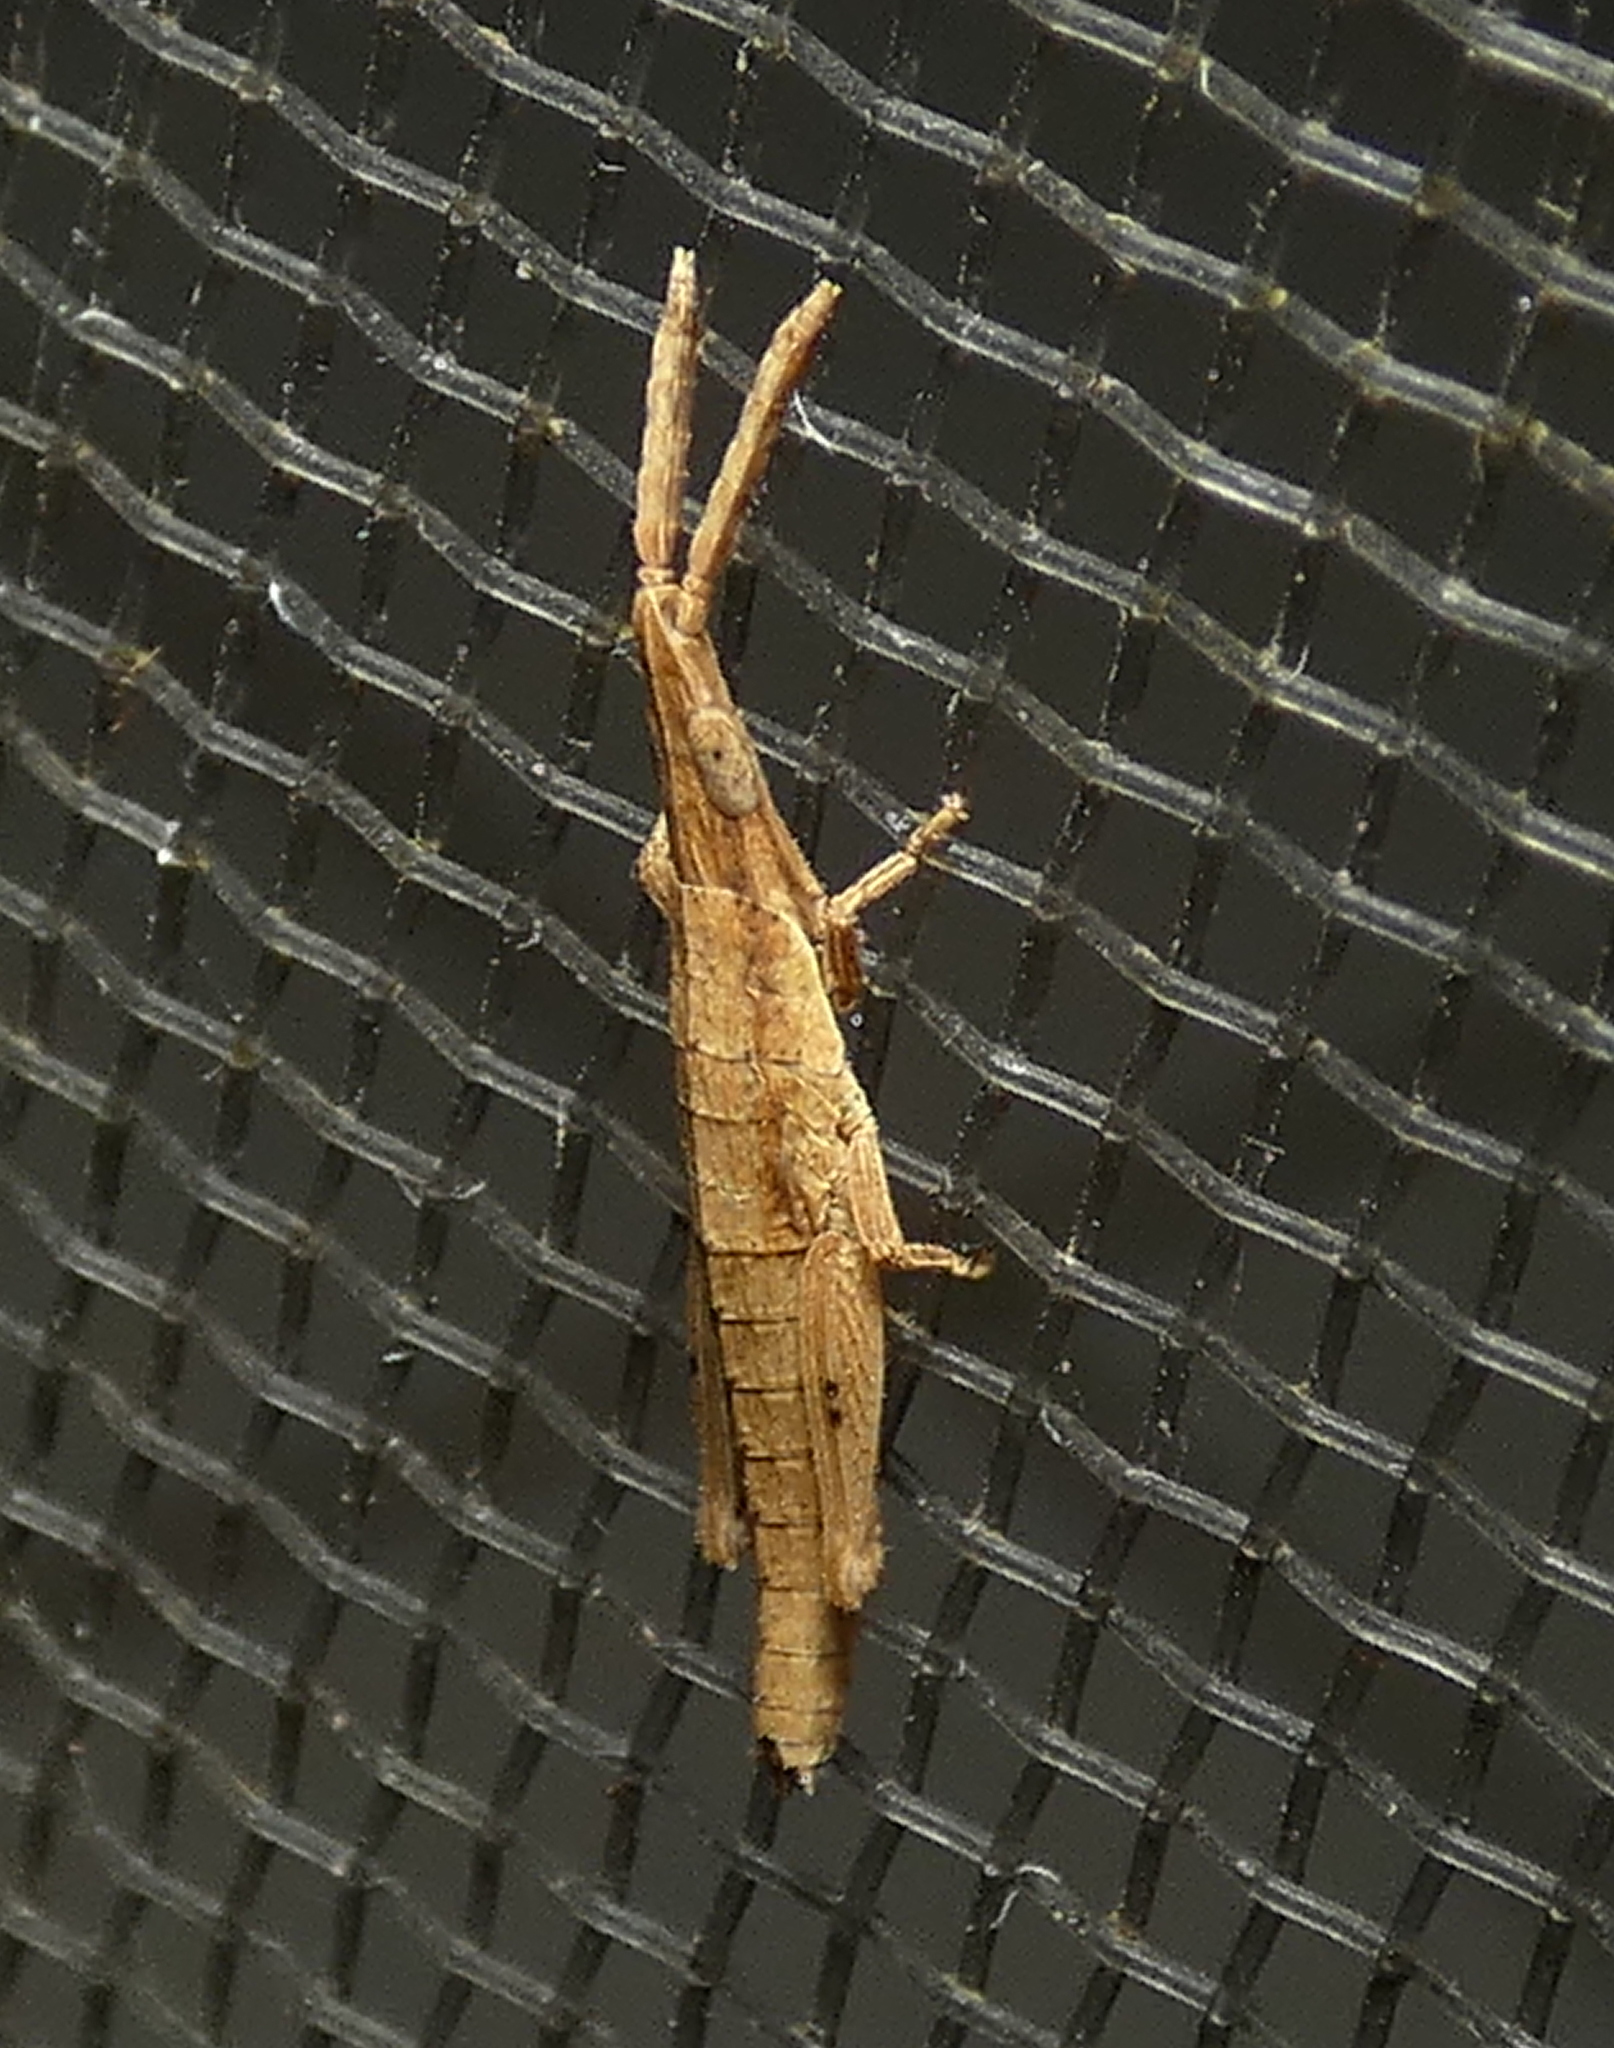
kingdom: Animalia
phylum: Arthropoda
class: Insecta
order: Orthoptera
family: Pyrgomorphidae
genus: Algete
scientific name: Algete brunneri
